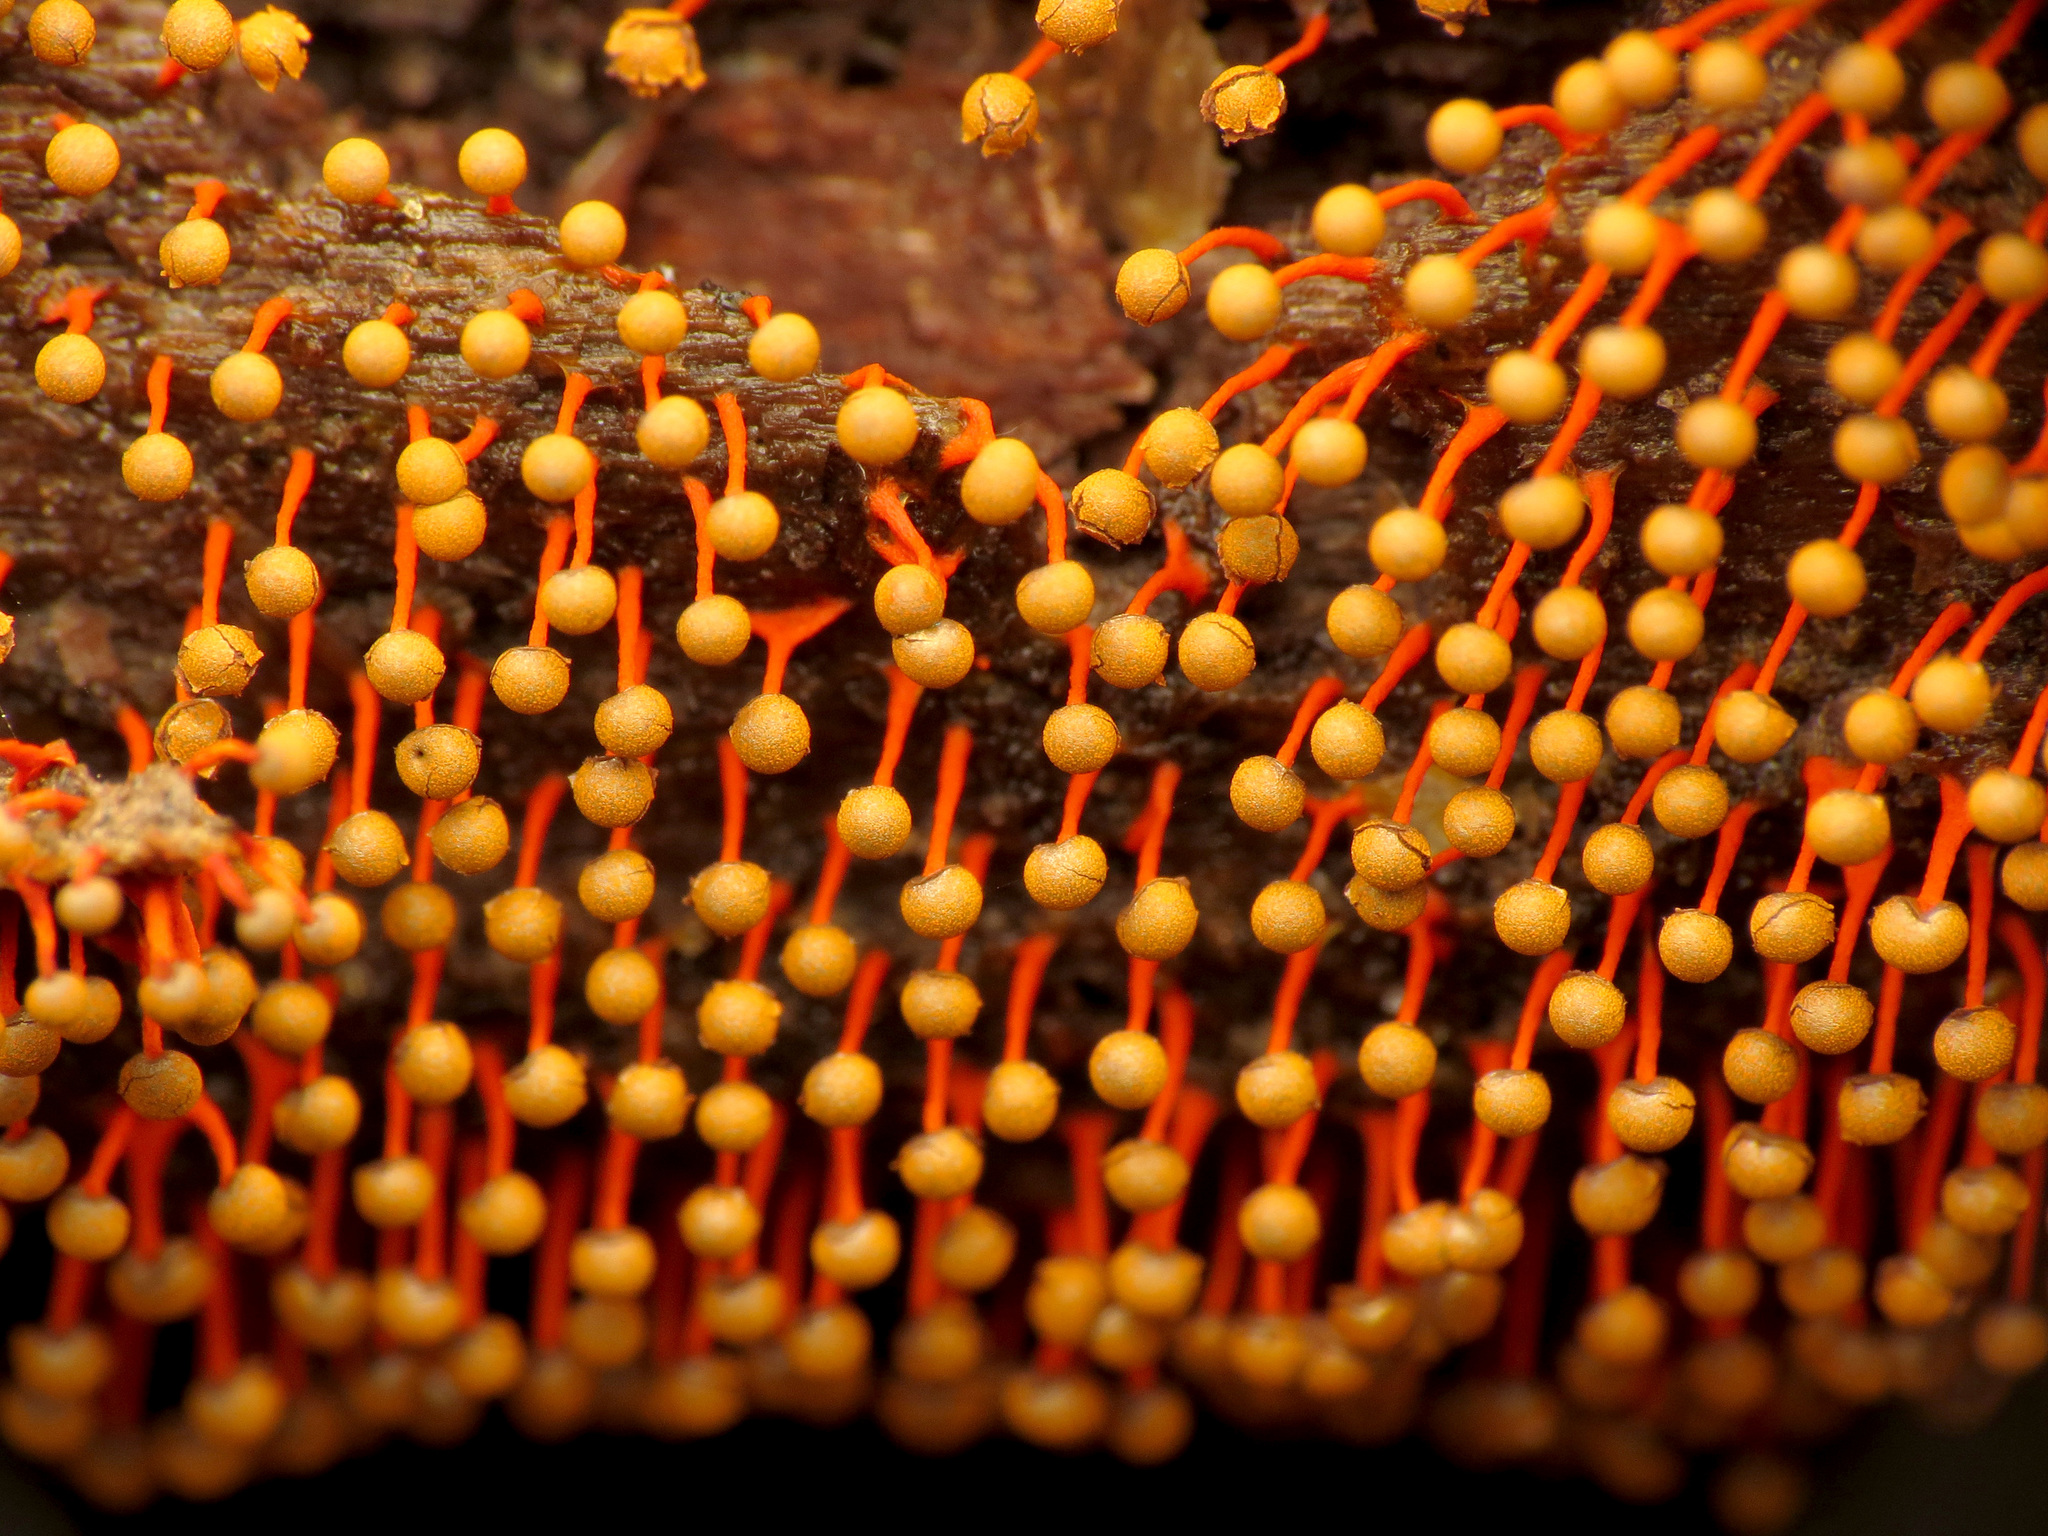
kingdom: Protozoa
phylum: Mycetozoa
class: Myxomycetes
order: Physarales
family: Physaraceae
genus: Physarum
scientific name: Physarum psittacinum
